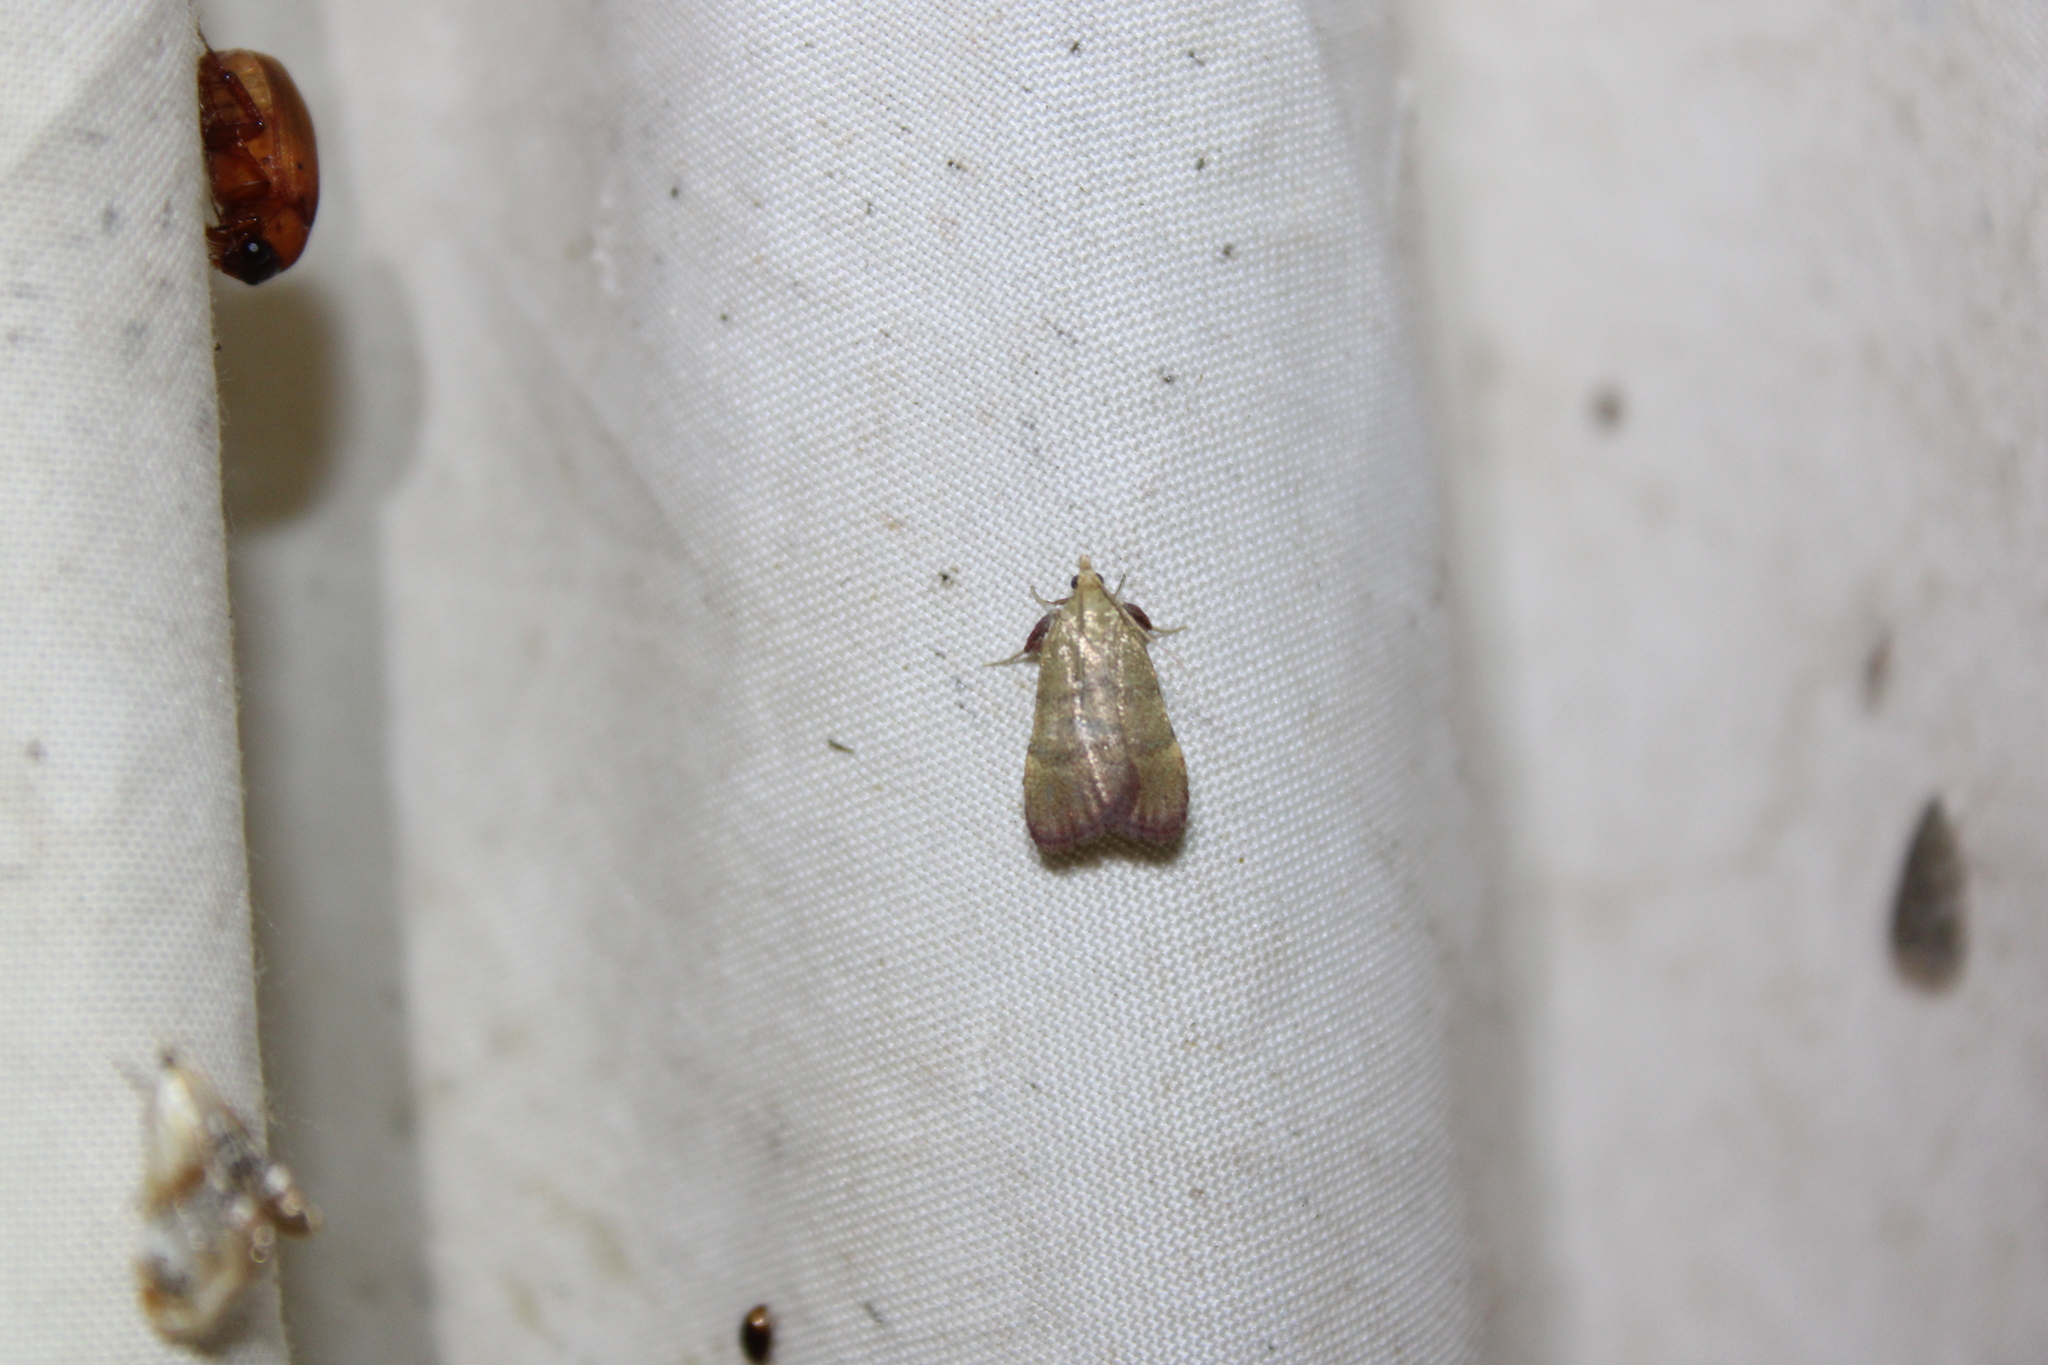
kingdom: Animalia
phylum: Arthropoda
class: Insecta
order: Lepidoptera
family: Pyralidae
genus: Condylolomia
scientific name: Condylolomia participialis
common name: Drab condylolomia moth
